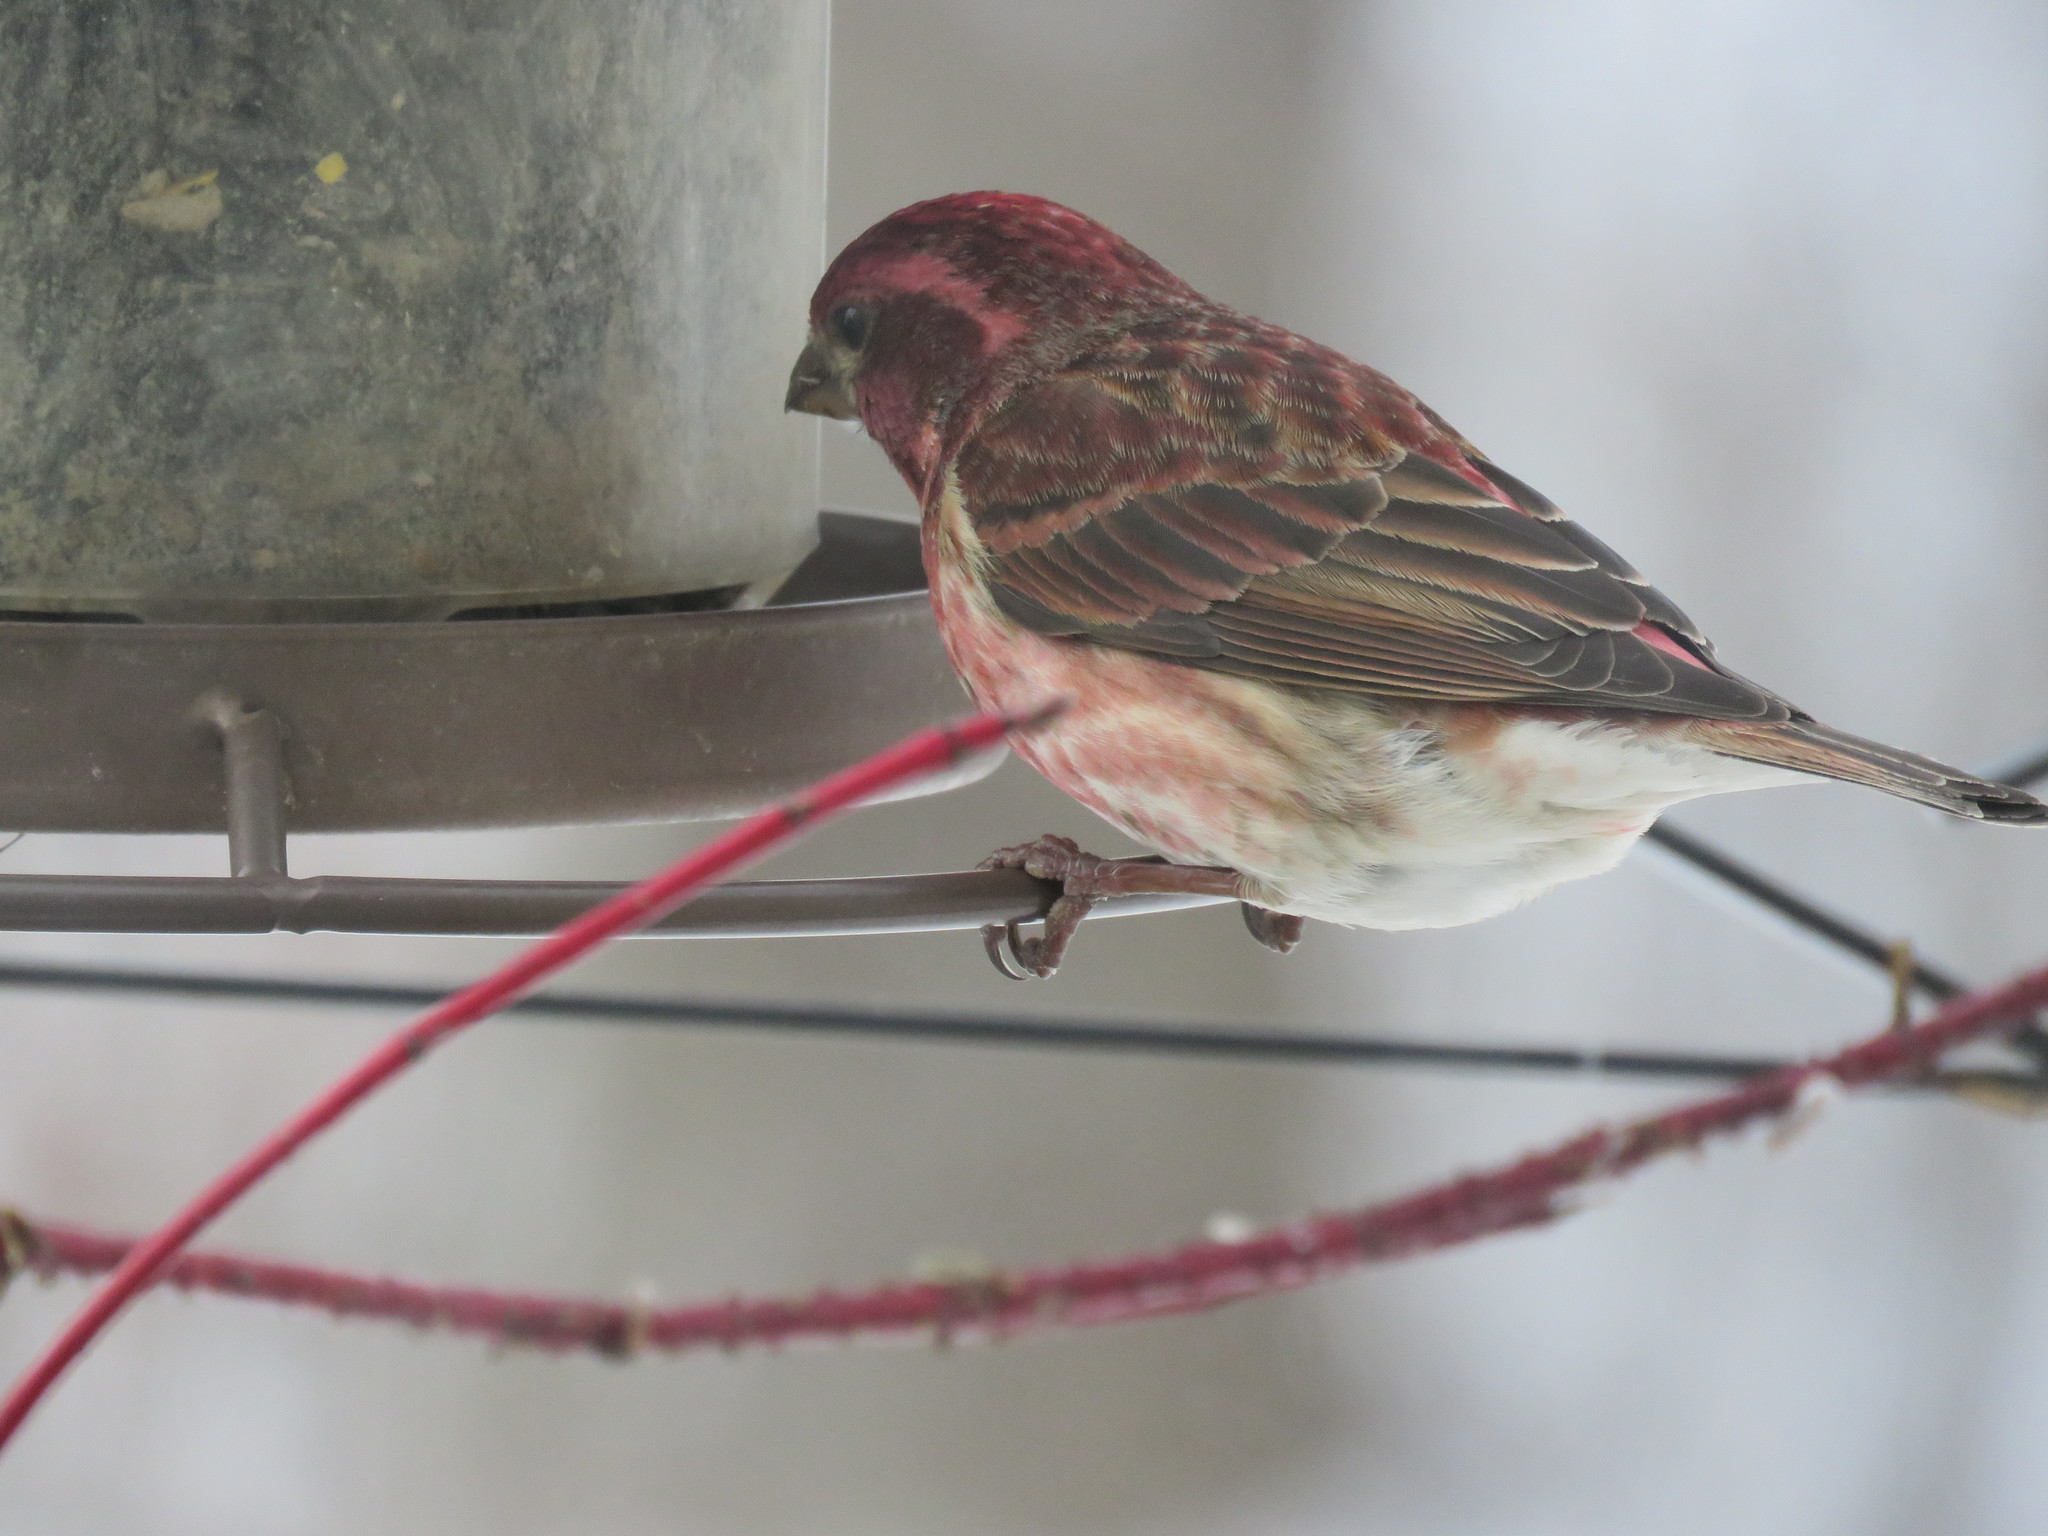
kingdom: Animalia
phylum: Chordata
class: Aves
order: Passeriformes
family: Fringillidae
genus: Haemorhous
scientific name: Haemorhous purpureus
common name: Purple finch
